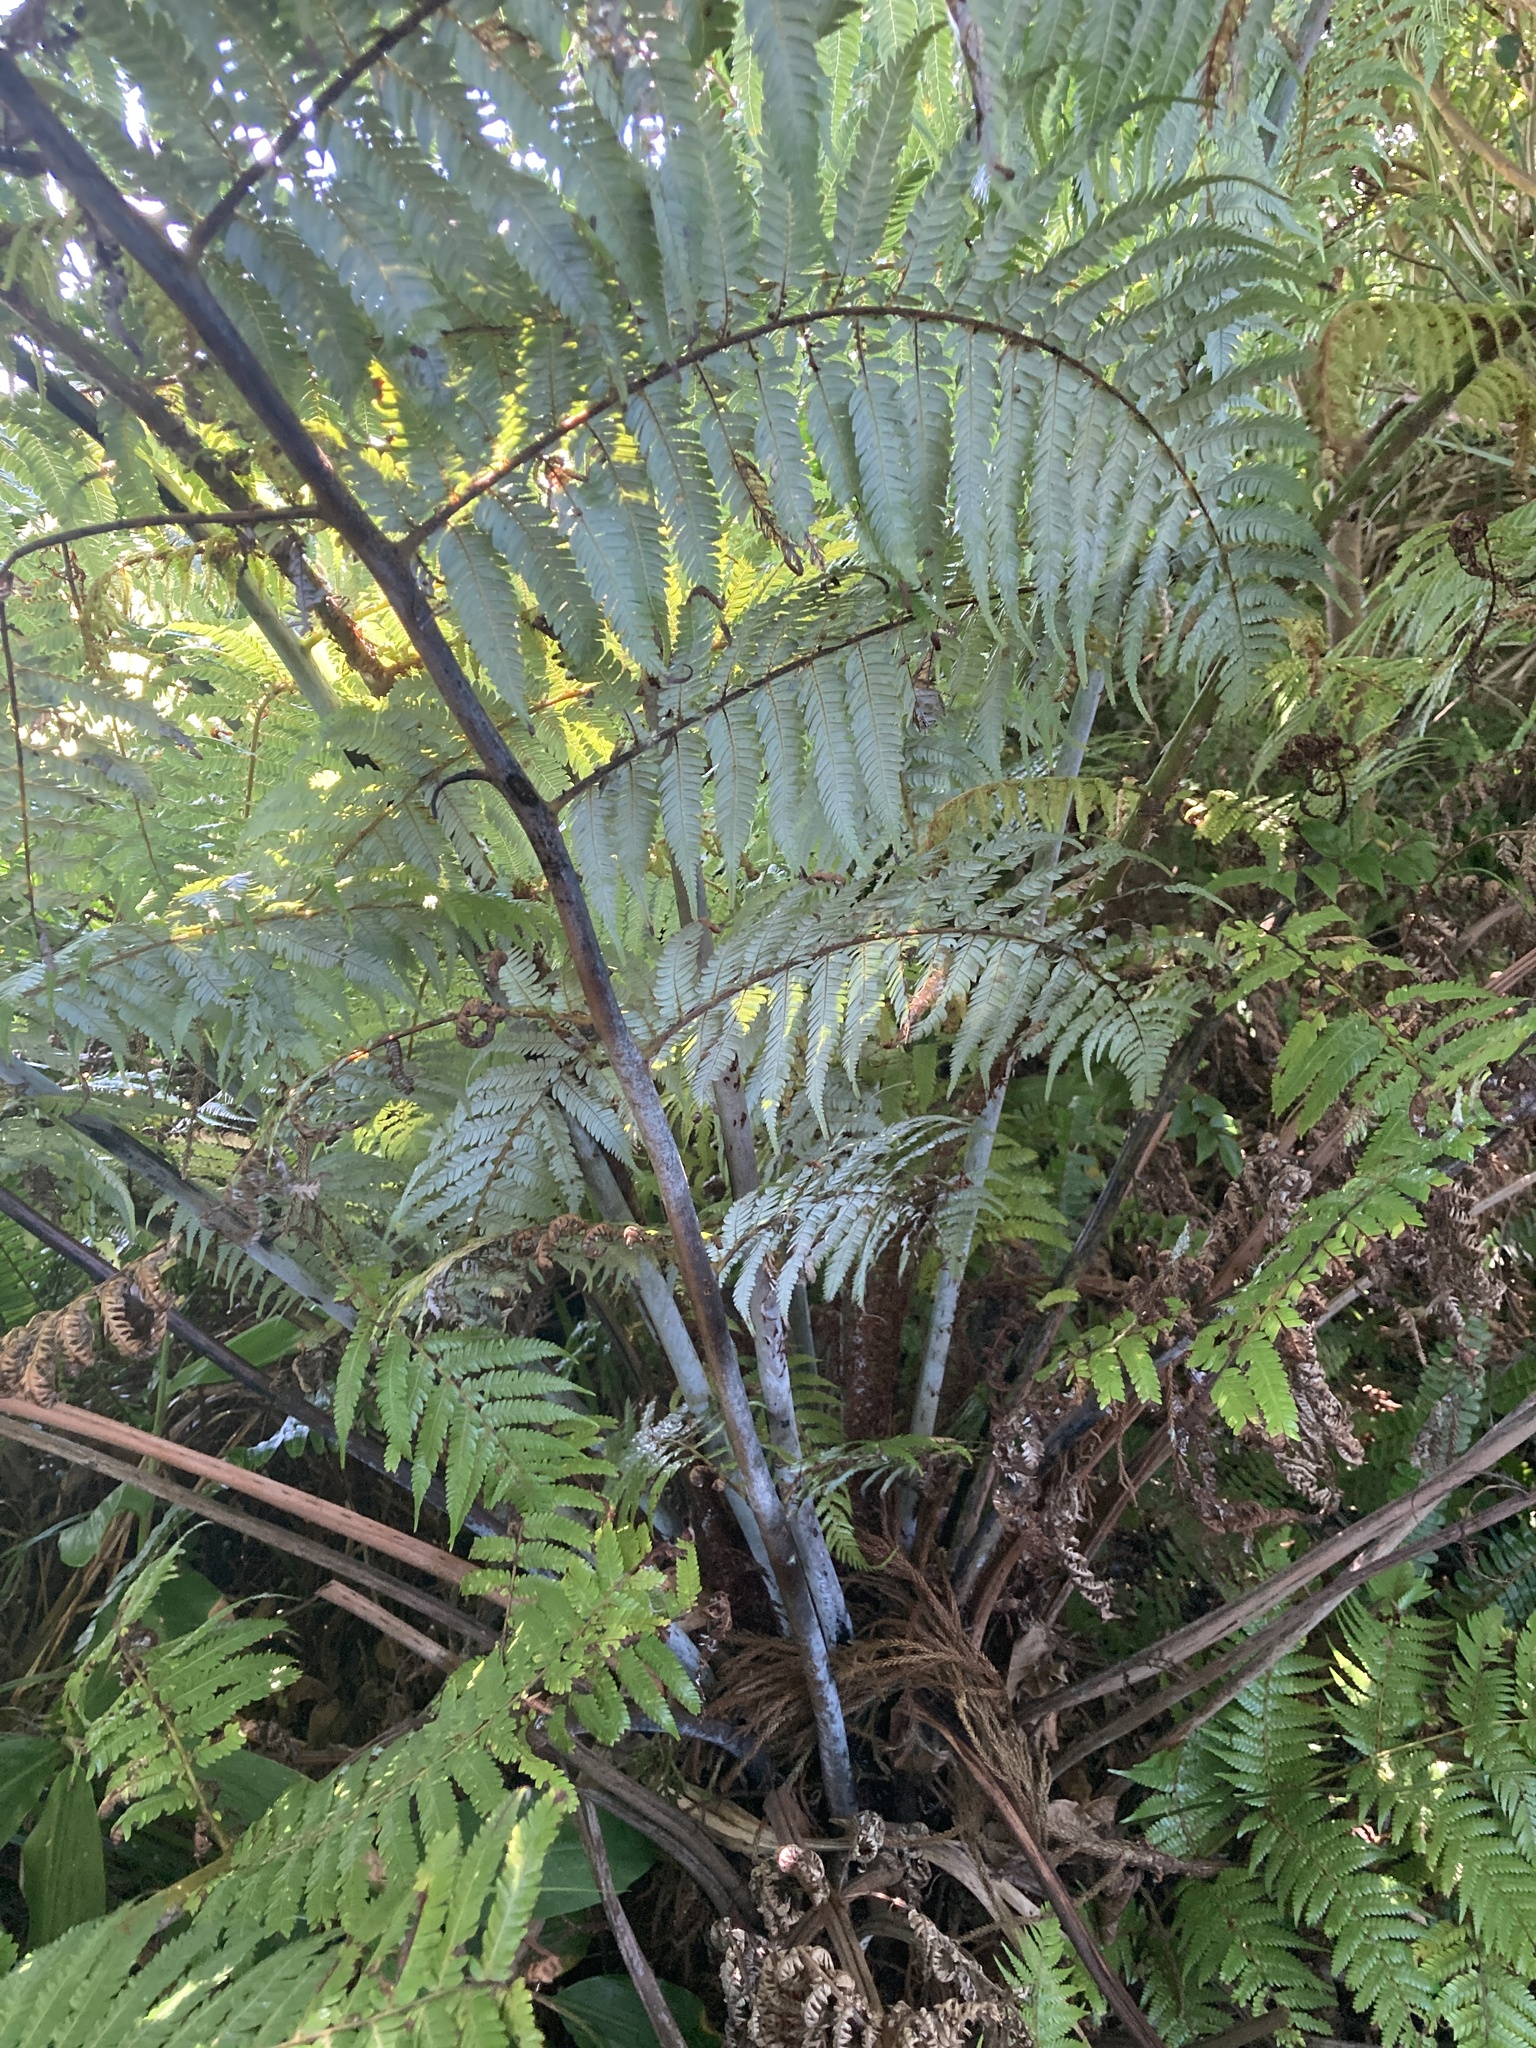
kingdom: Plantae
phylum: Tracheophyta
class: Polypodiopsida
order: Cyatheales
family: Cyatheaceae
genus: Alsophila
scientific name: Alsophila dealbata
